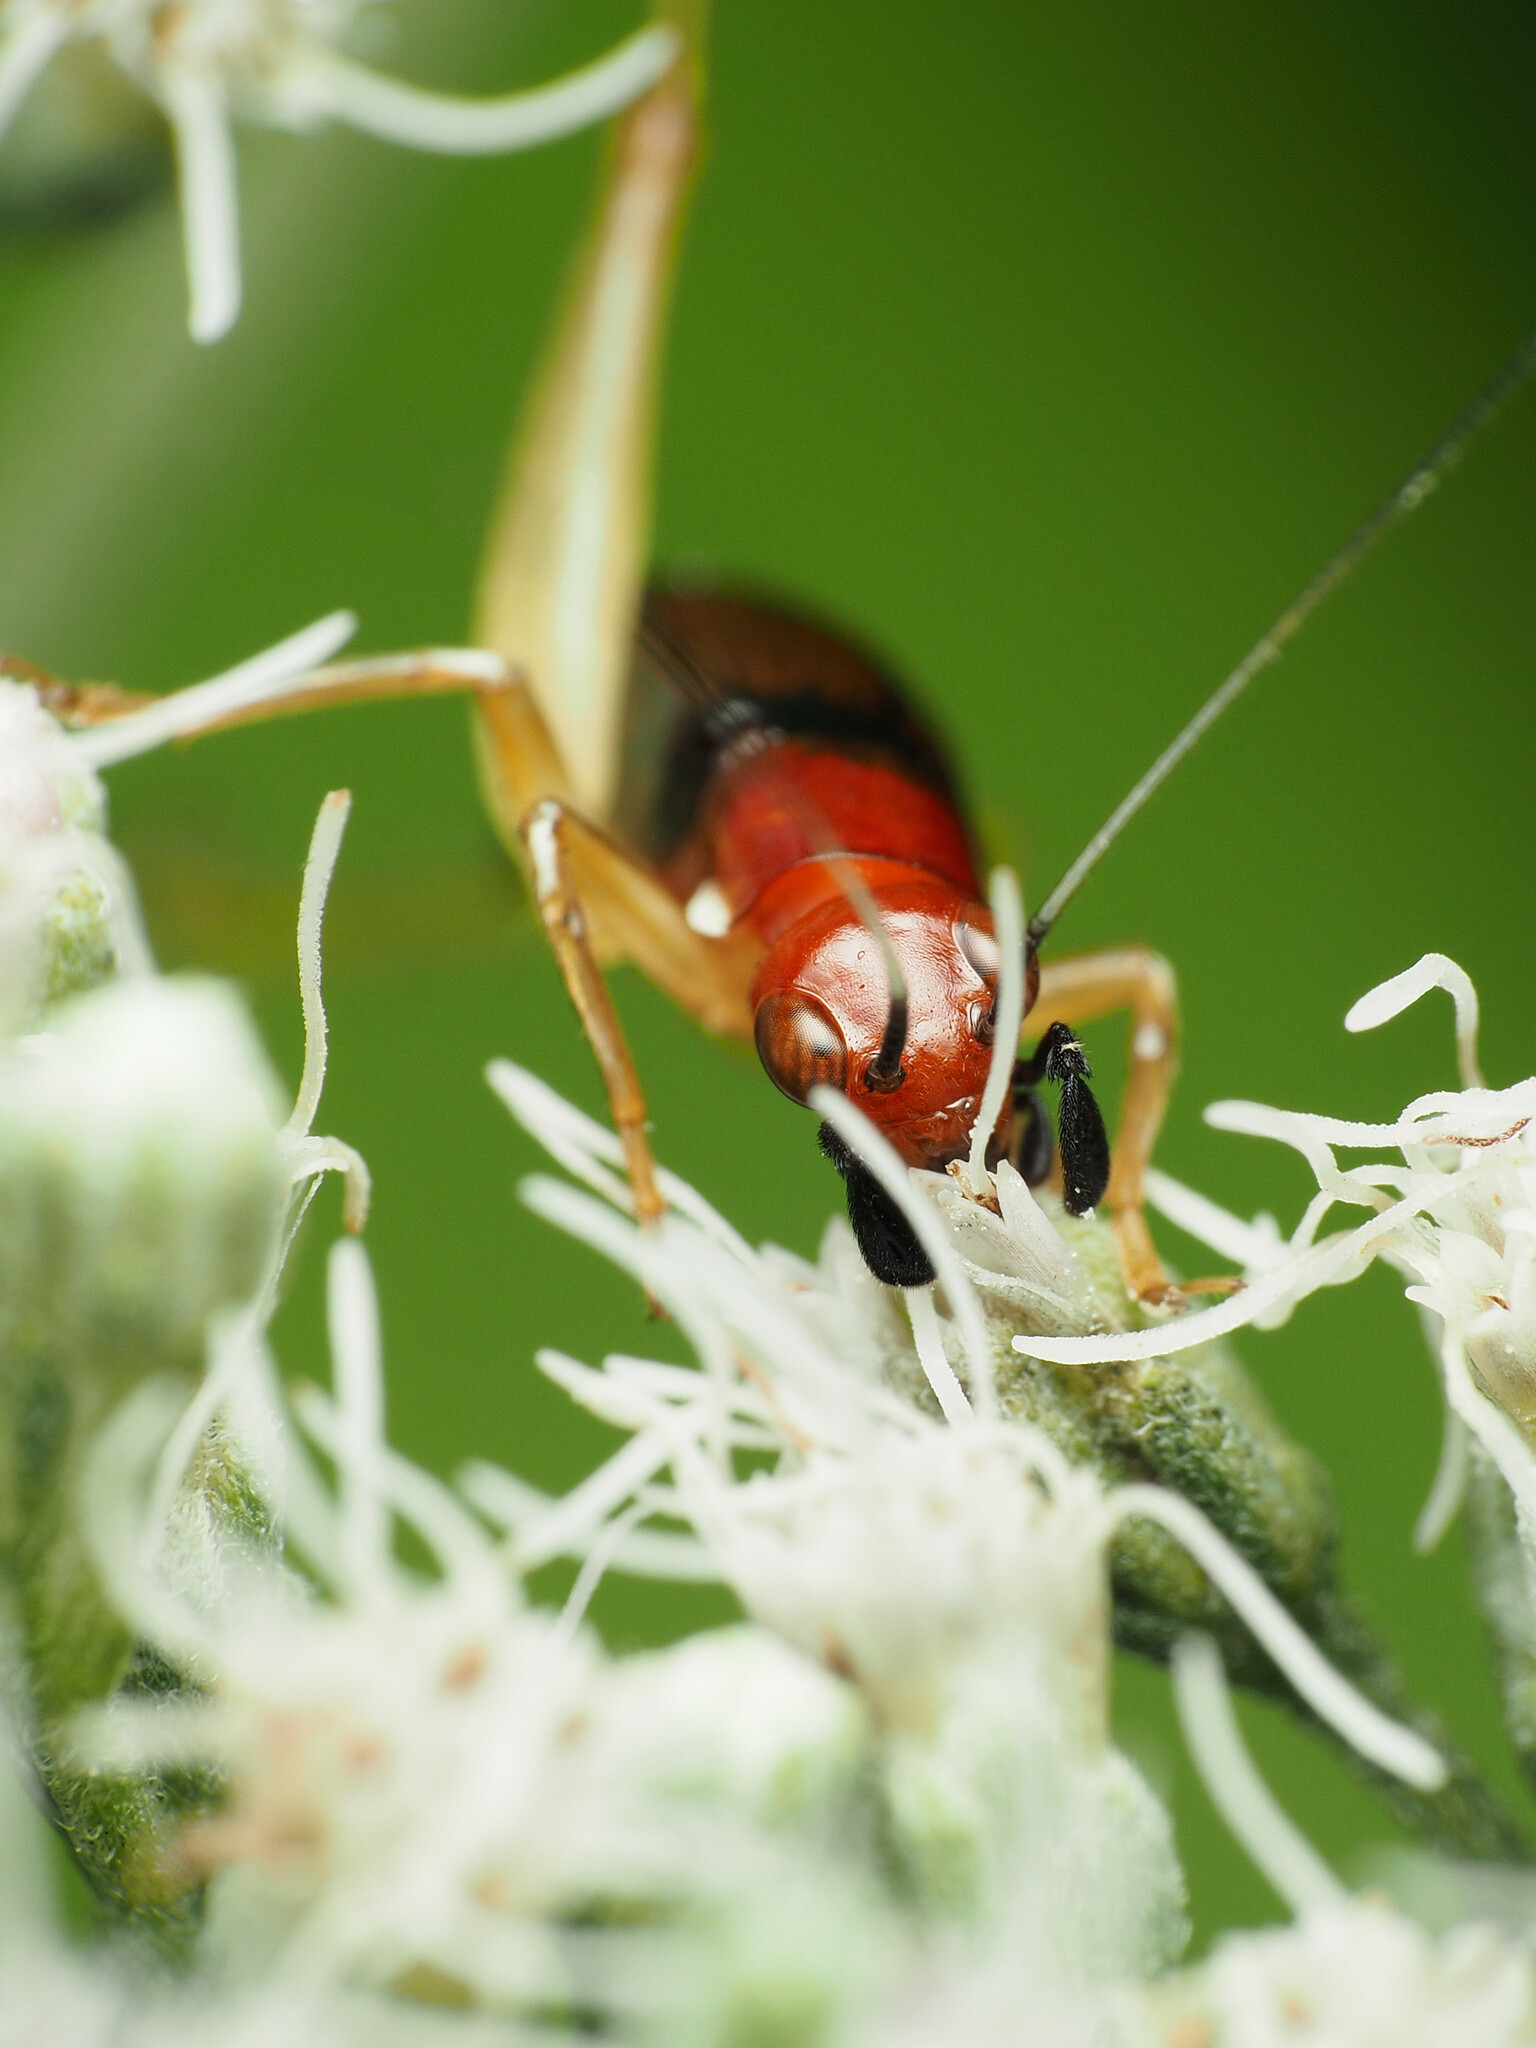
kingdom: Animalia
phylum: Arthropoda
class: Insecta
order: Orthoptera
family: Trigonidiidae
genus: Phyllopalpus
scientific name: Phyllopalpus pulchellus
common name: Handsome trig
